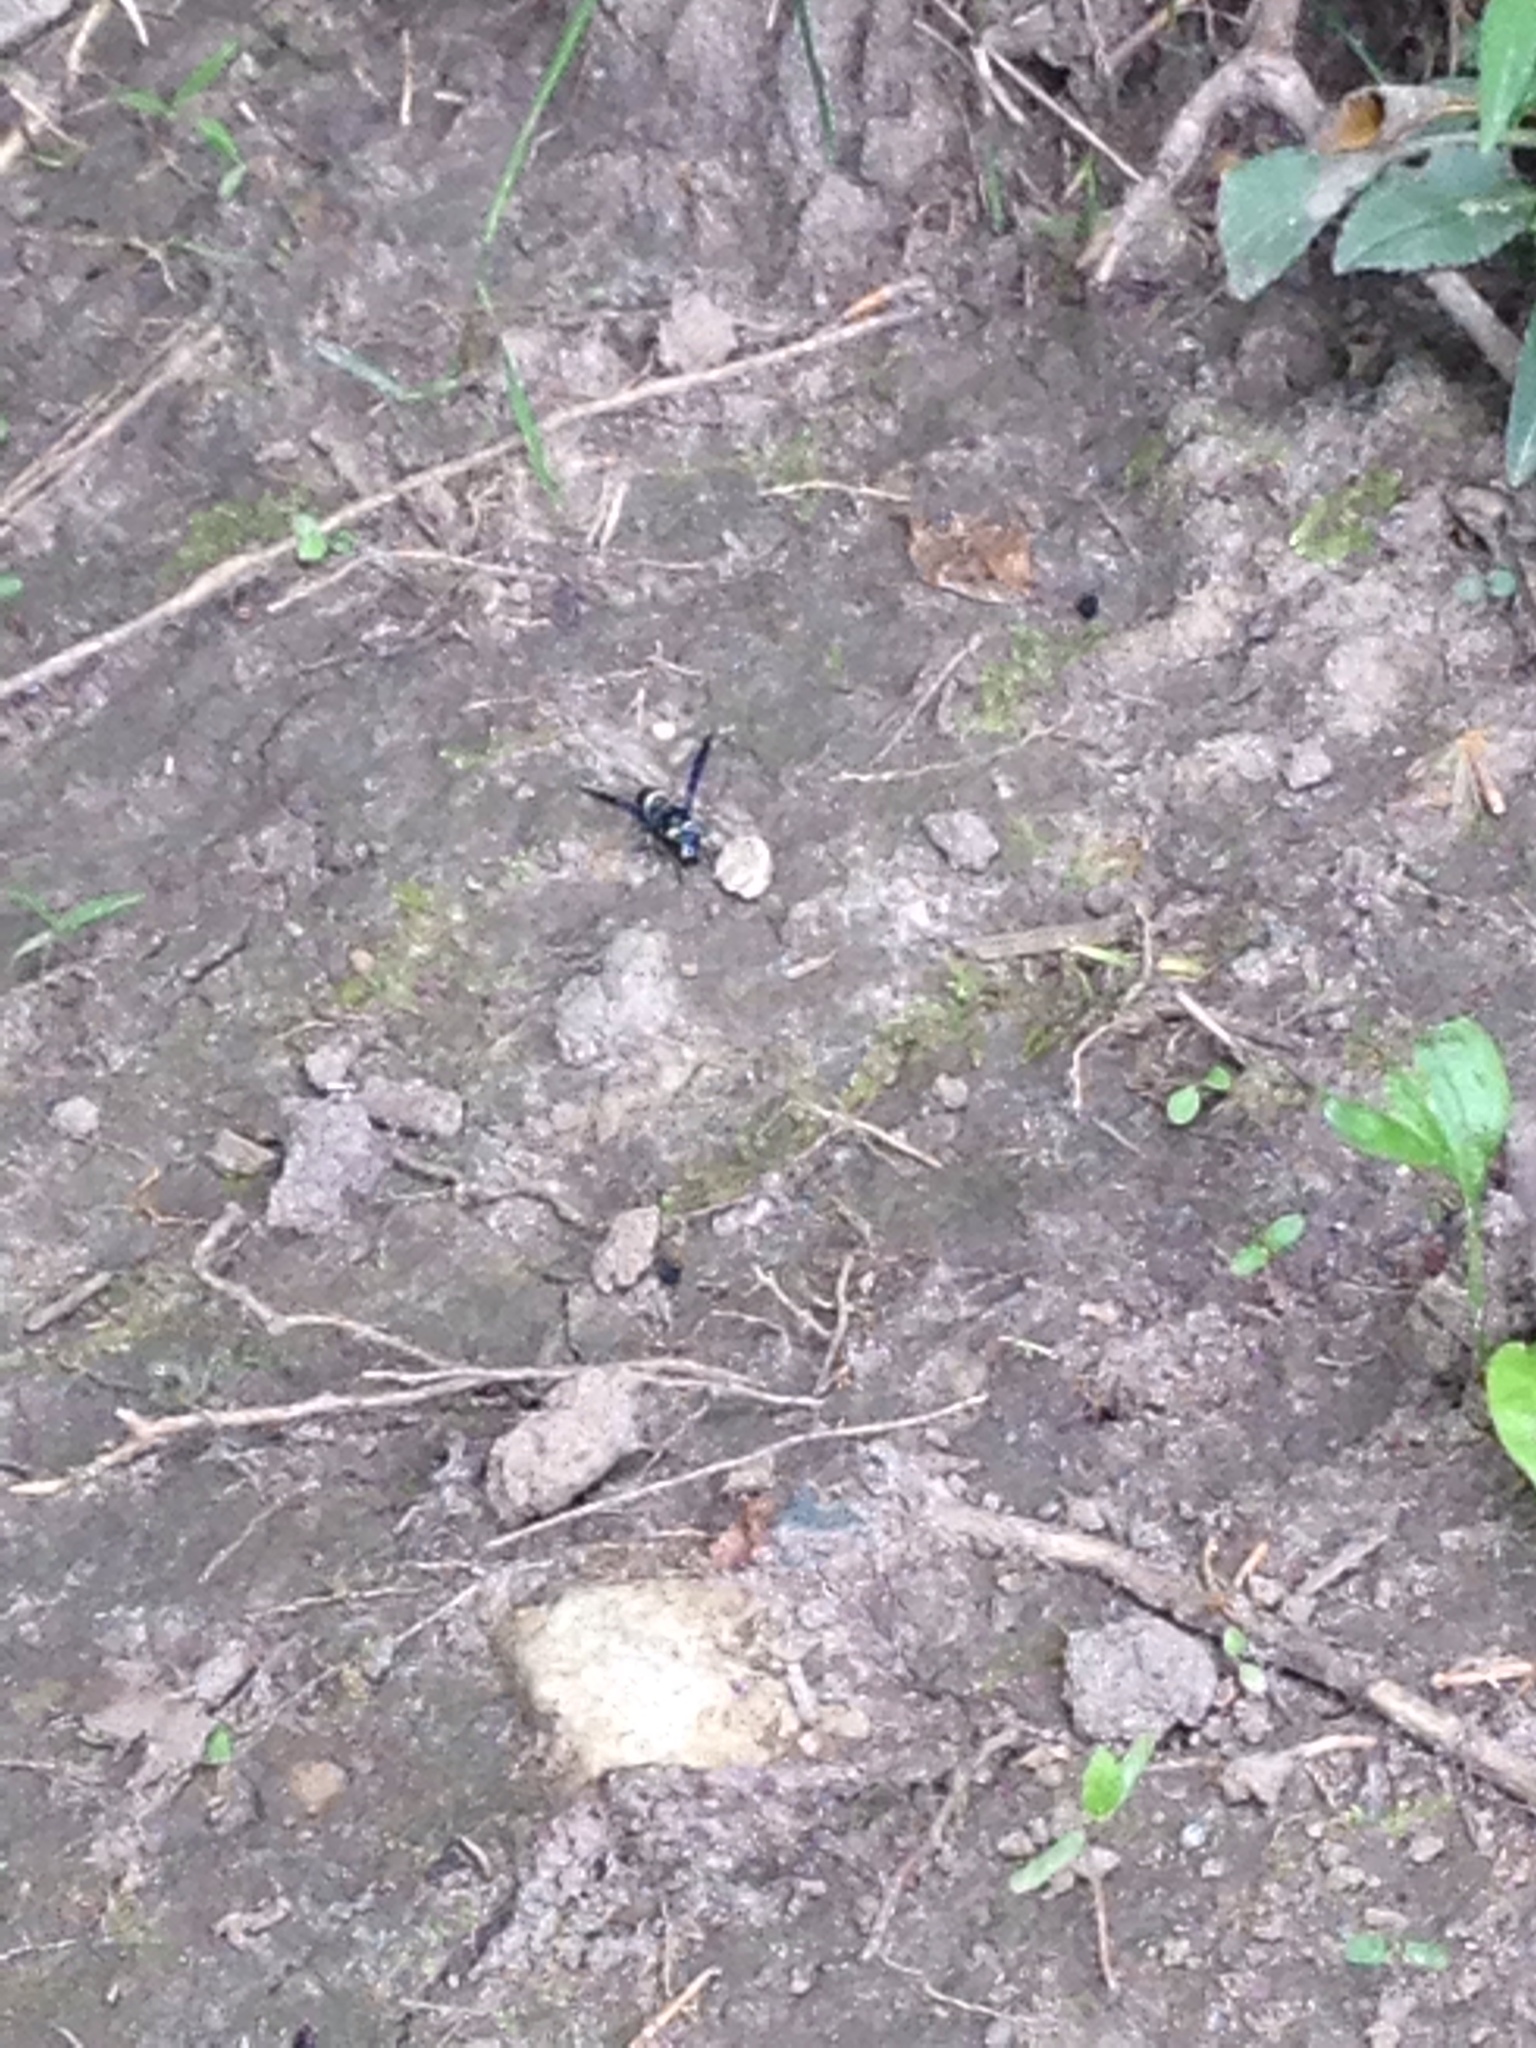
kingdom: Animalia
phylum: Arthropoda
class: Insecta
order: Hymenoptera
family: Eumenidae
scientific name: Eumenidae
